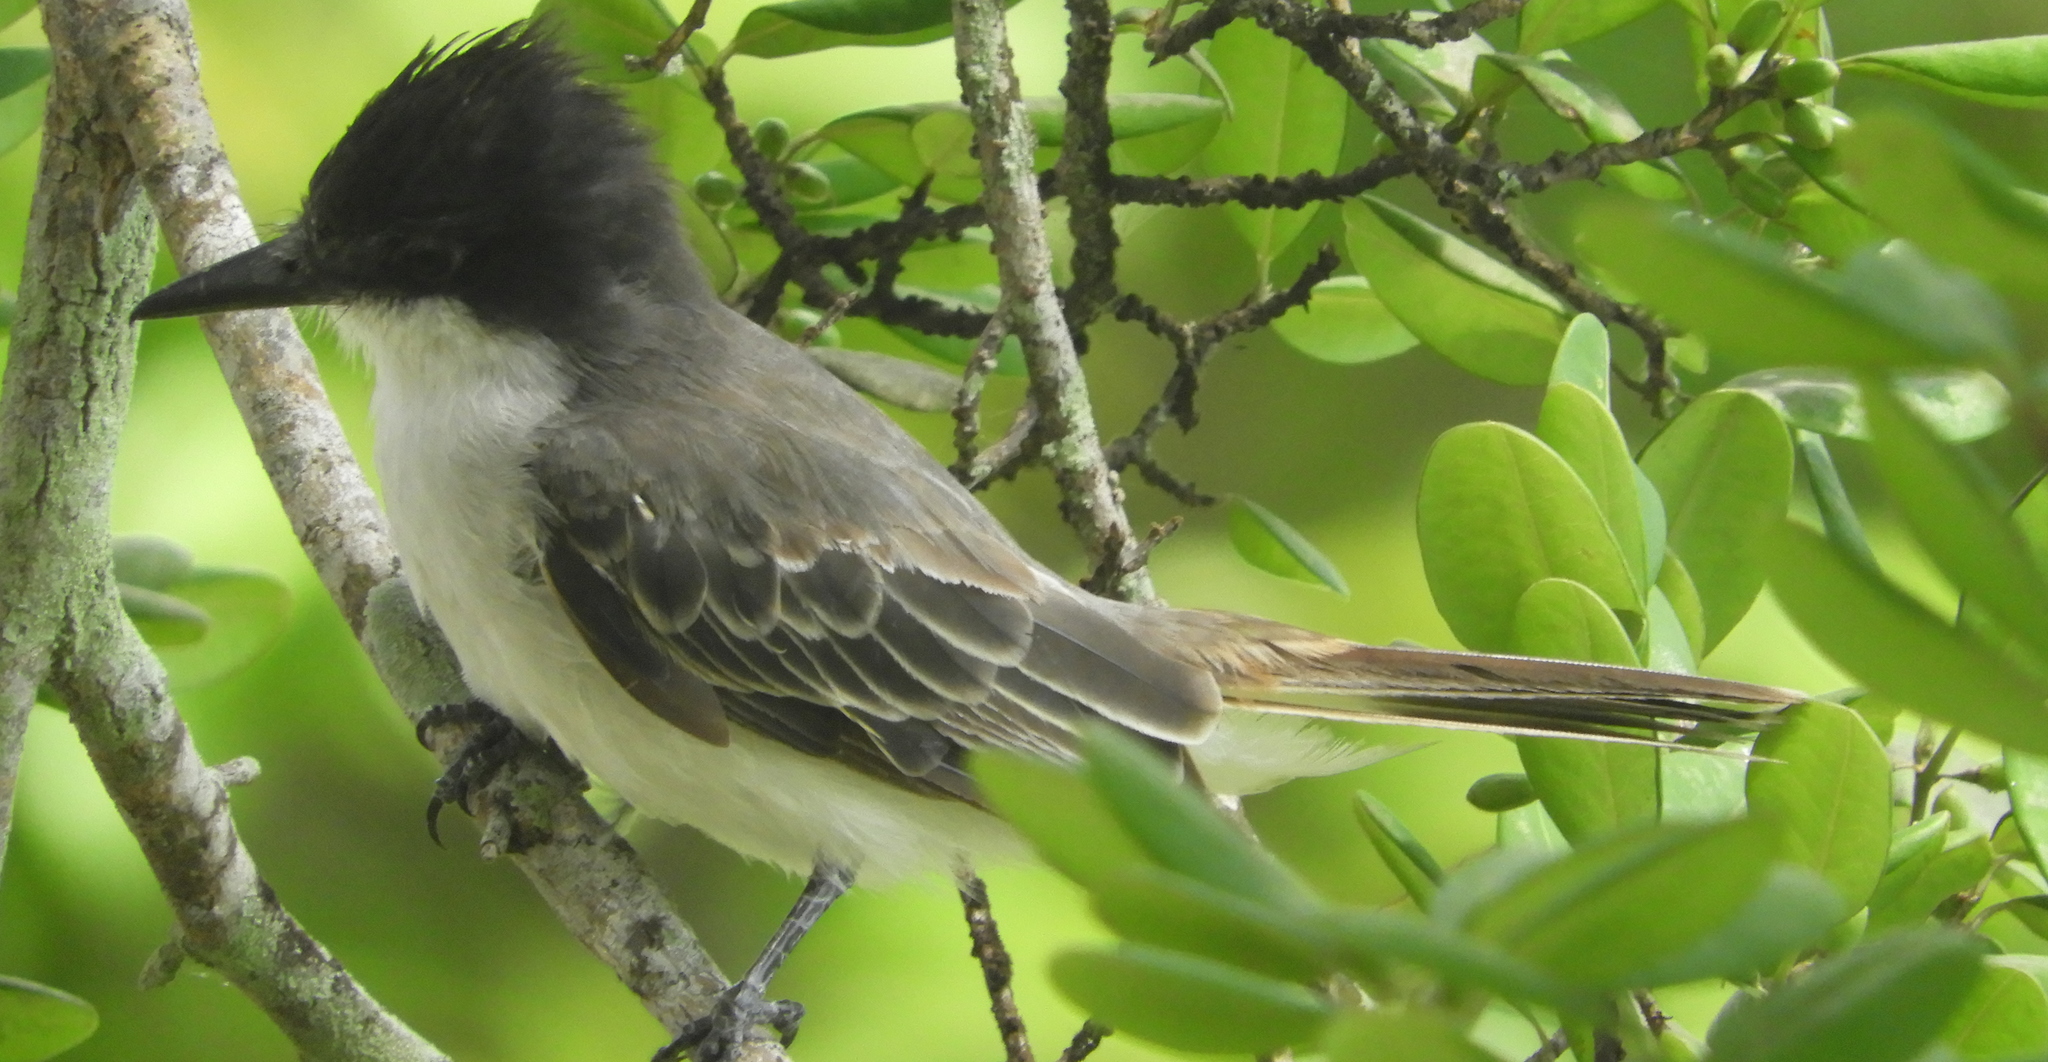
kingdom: Animalia
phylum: Chordata
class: Aves
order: Passeriformes
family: Tyrannidae
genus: Tyrannus
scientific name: Tyrannus caudifasciatus
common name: Loggerhead kingbird
